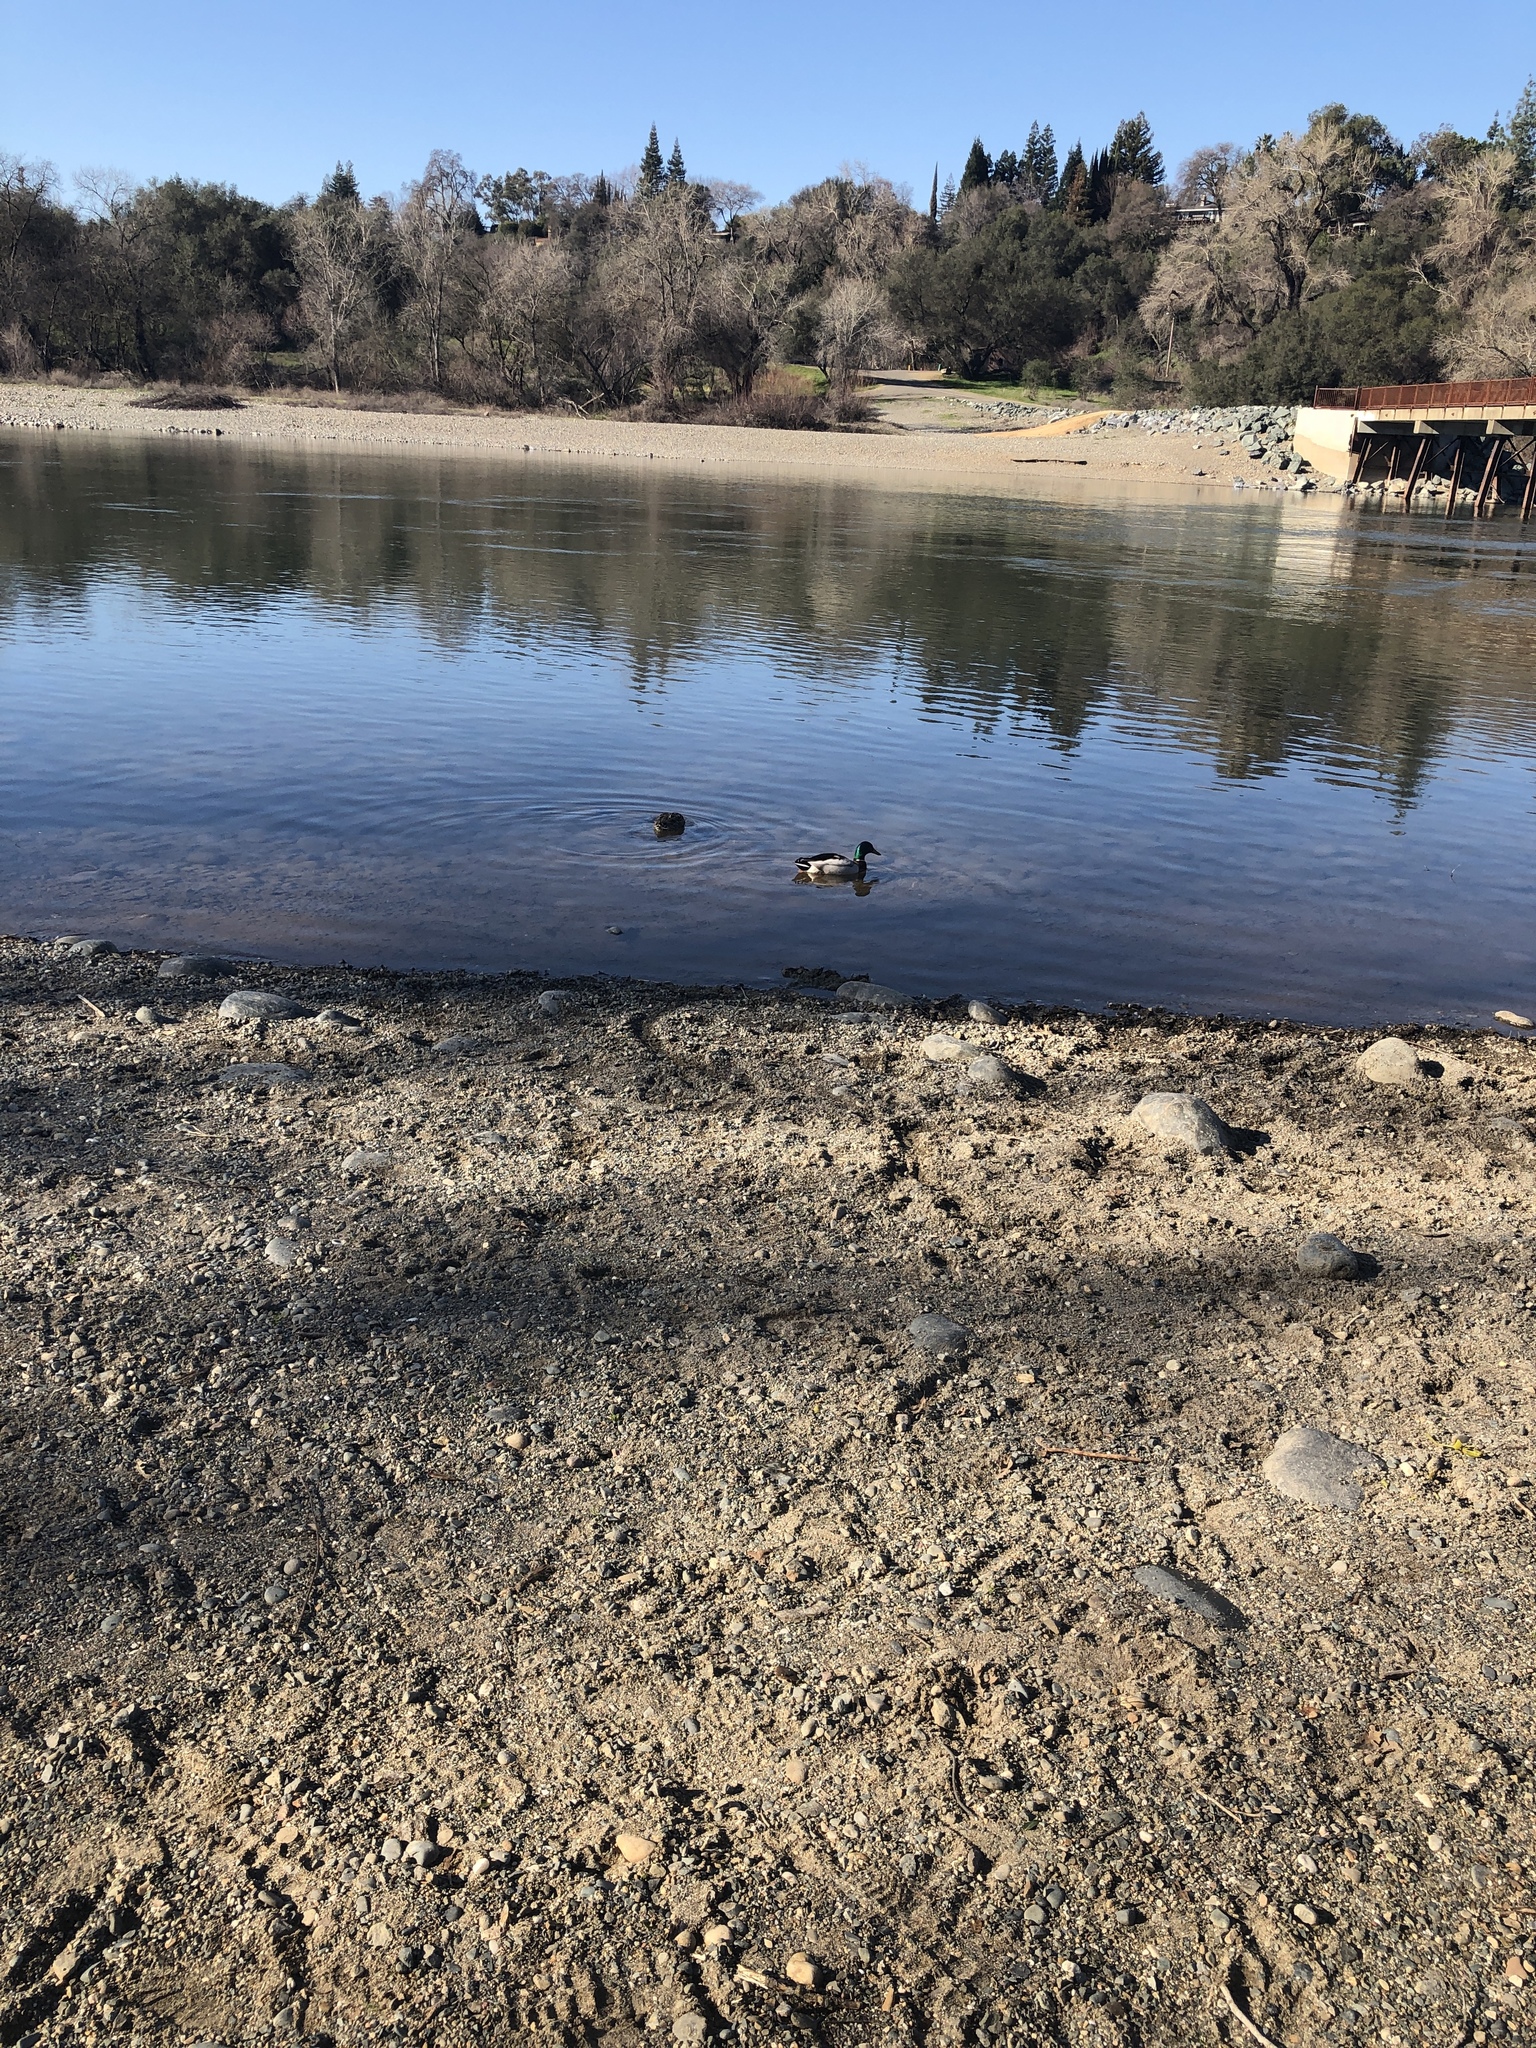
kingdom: Animalia
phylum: Chordata
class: Aves
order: Anseriformes
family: Anatidae
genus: Anas
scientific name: Anas platyrhynchos
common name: Mallard
